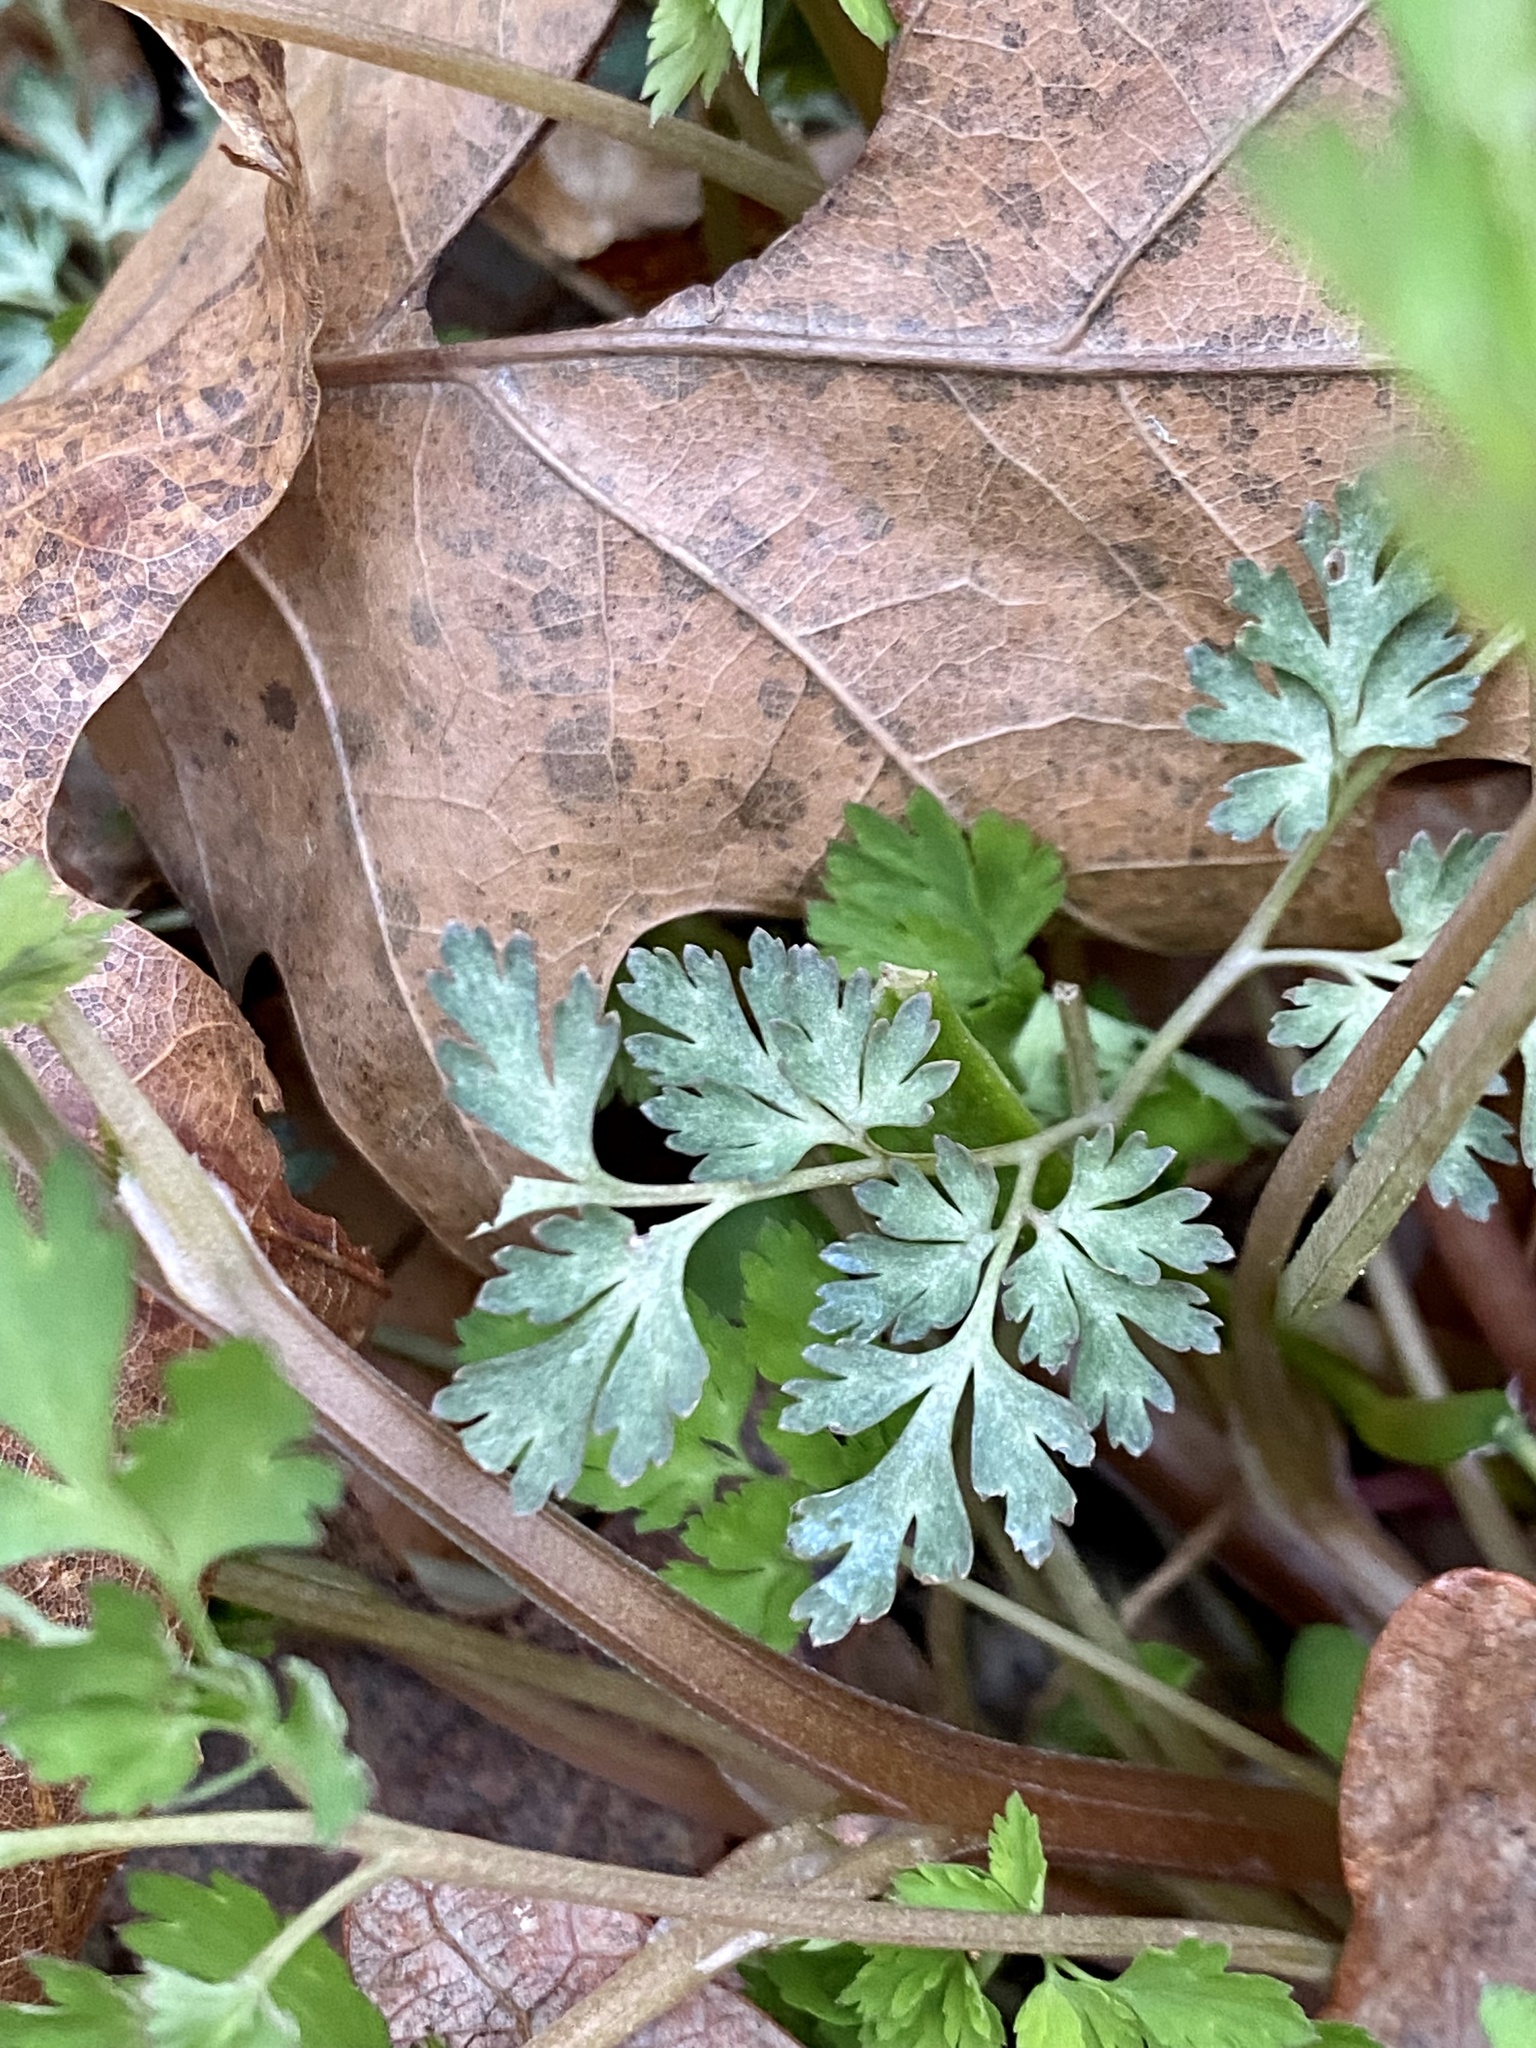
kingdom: Plantae
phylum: Tracheophyta
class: Magnoliopsida
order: Ranunculales
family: Papaveraceae
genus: Corydalis
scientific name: Corydalis incisa
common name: Incised fumewort
